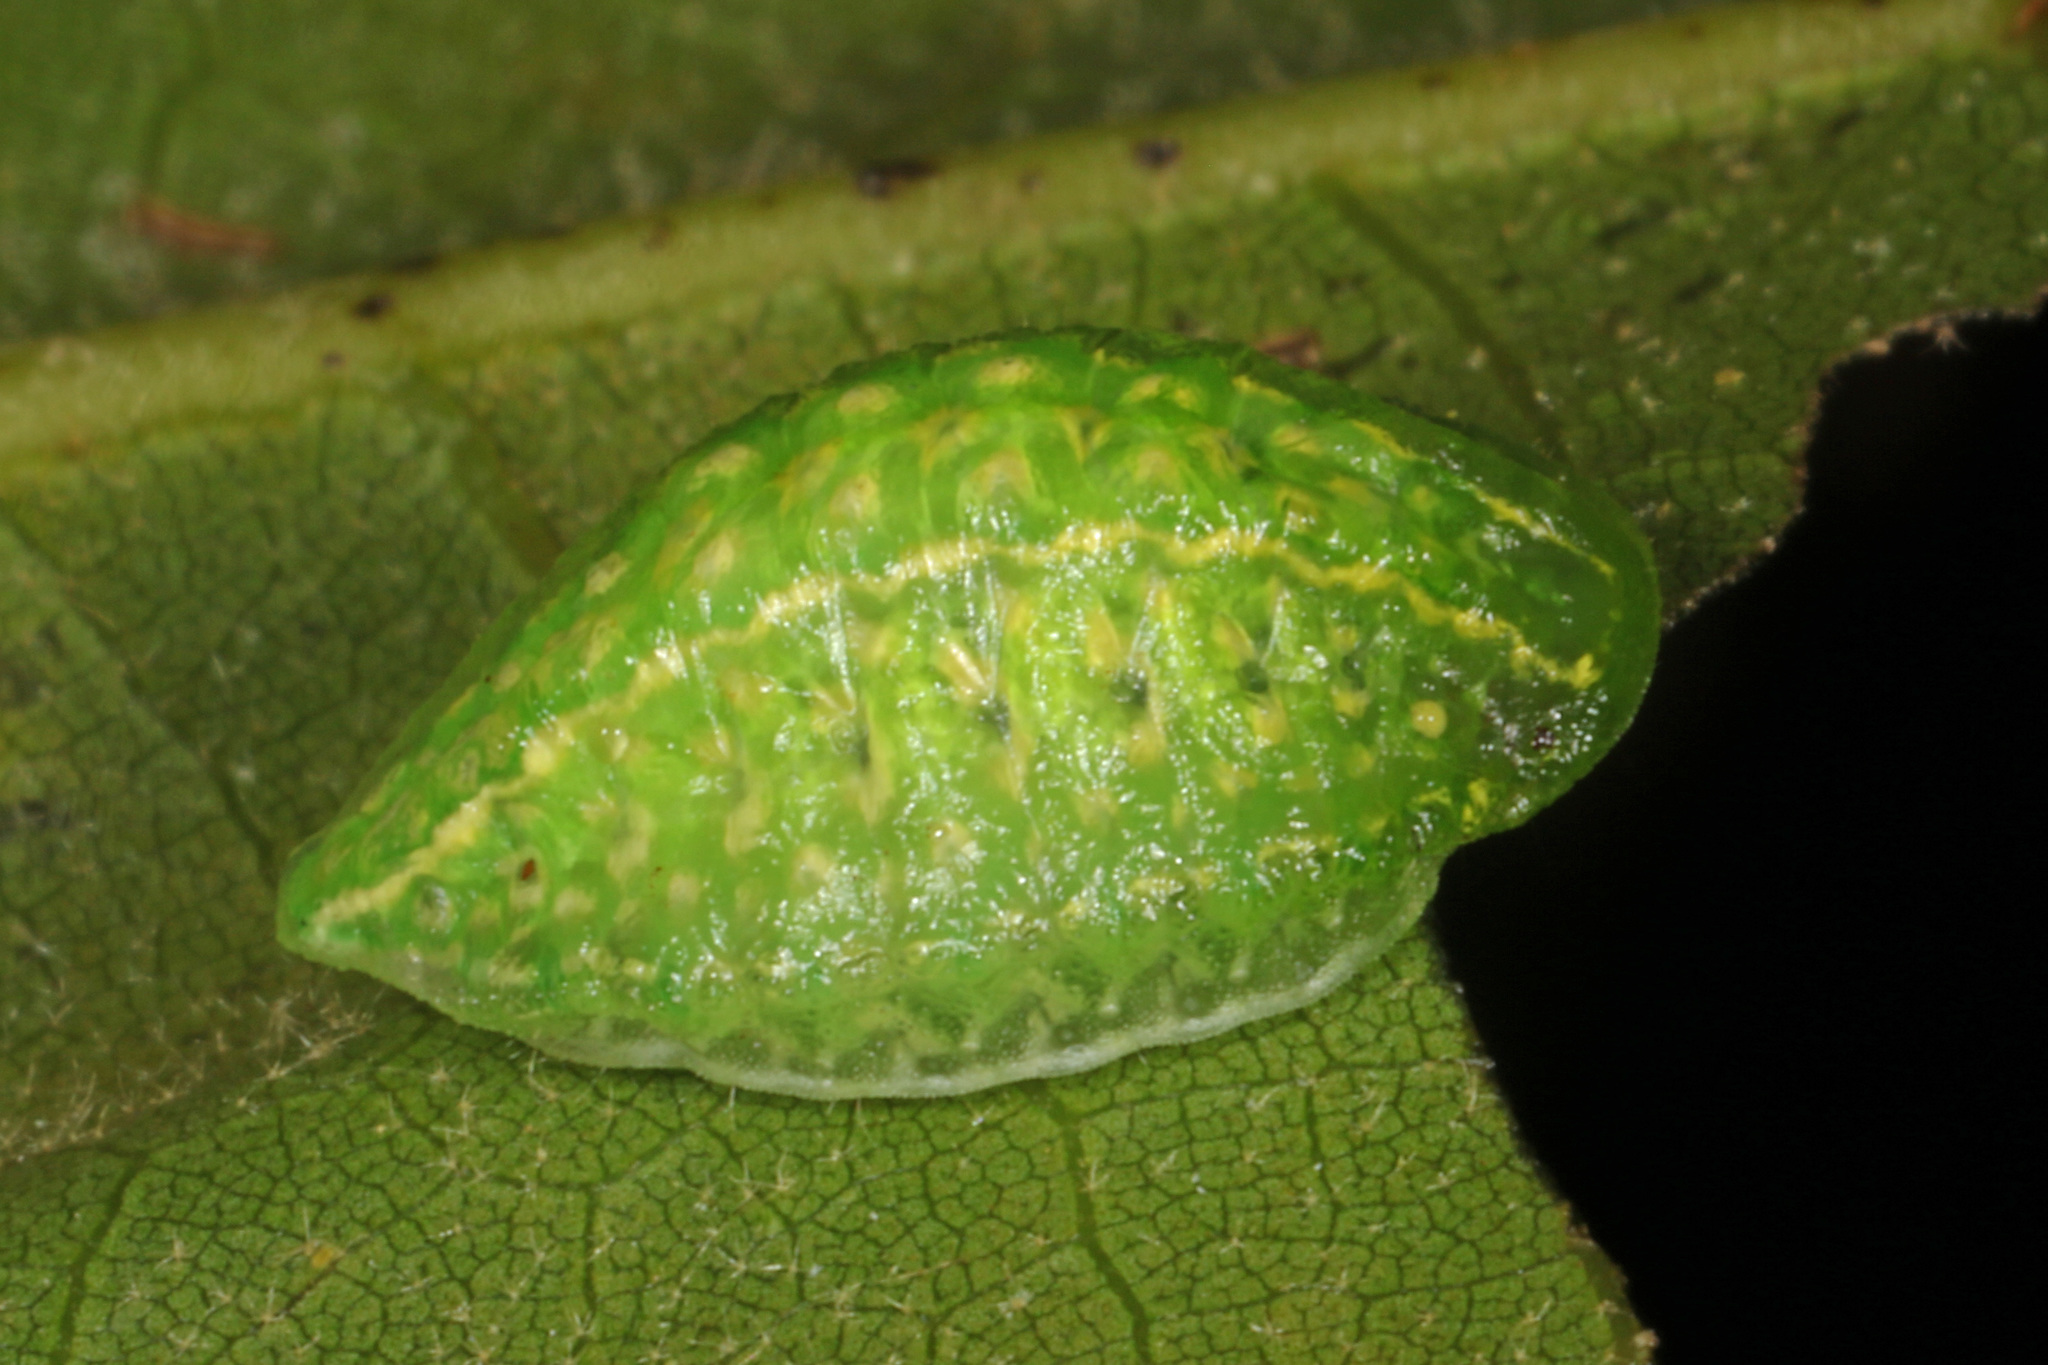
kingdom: Animalia
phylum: Arthropoda
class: Insecta
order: Lepidoptera
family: Limacodidae
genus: Lithacodes
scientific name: Lithacodes fasciola
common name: Yellow-shouldered slug moth
